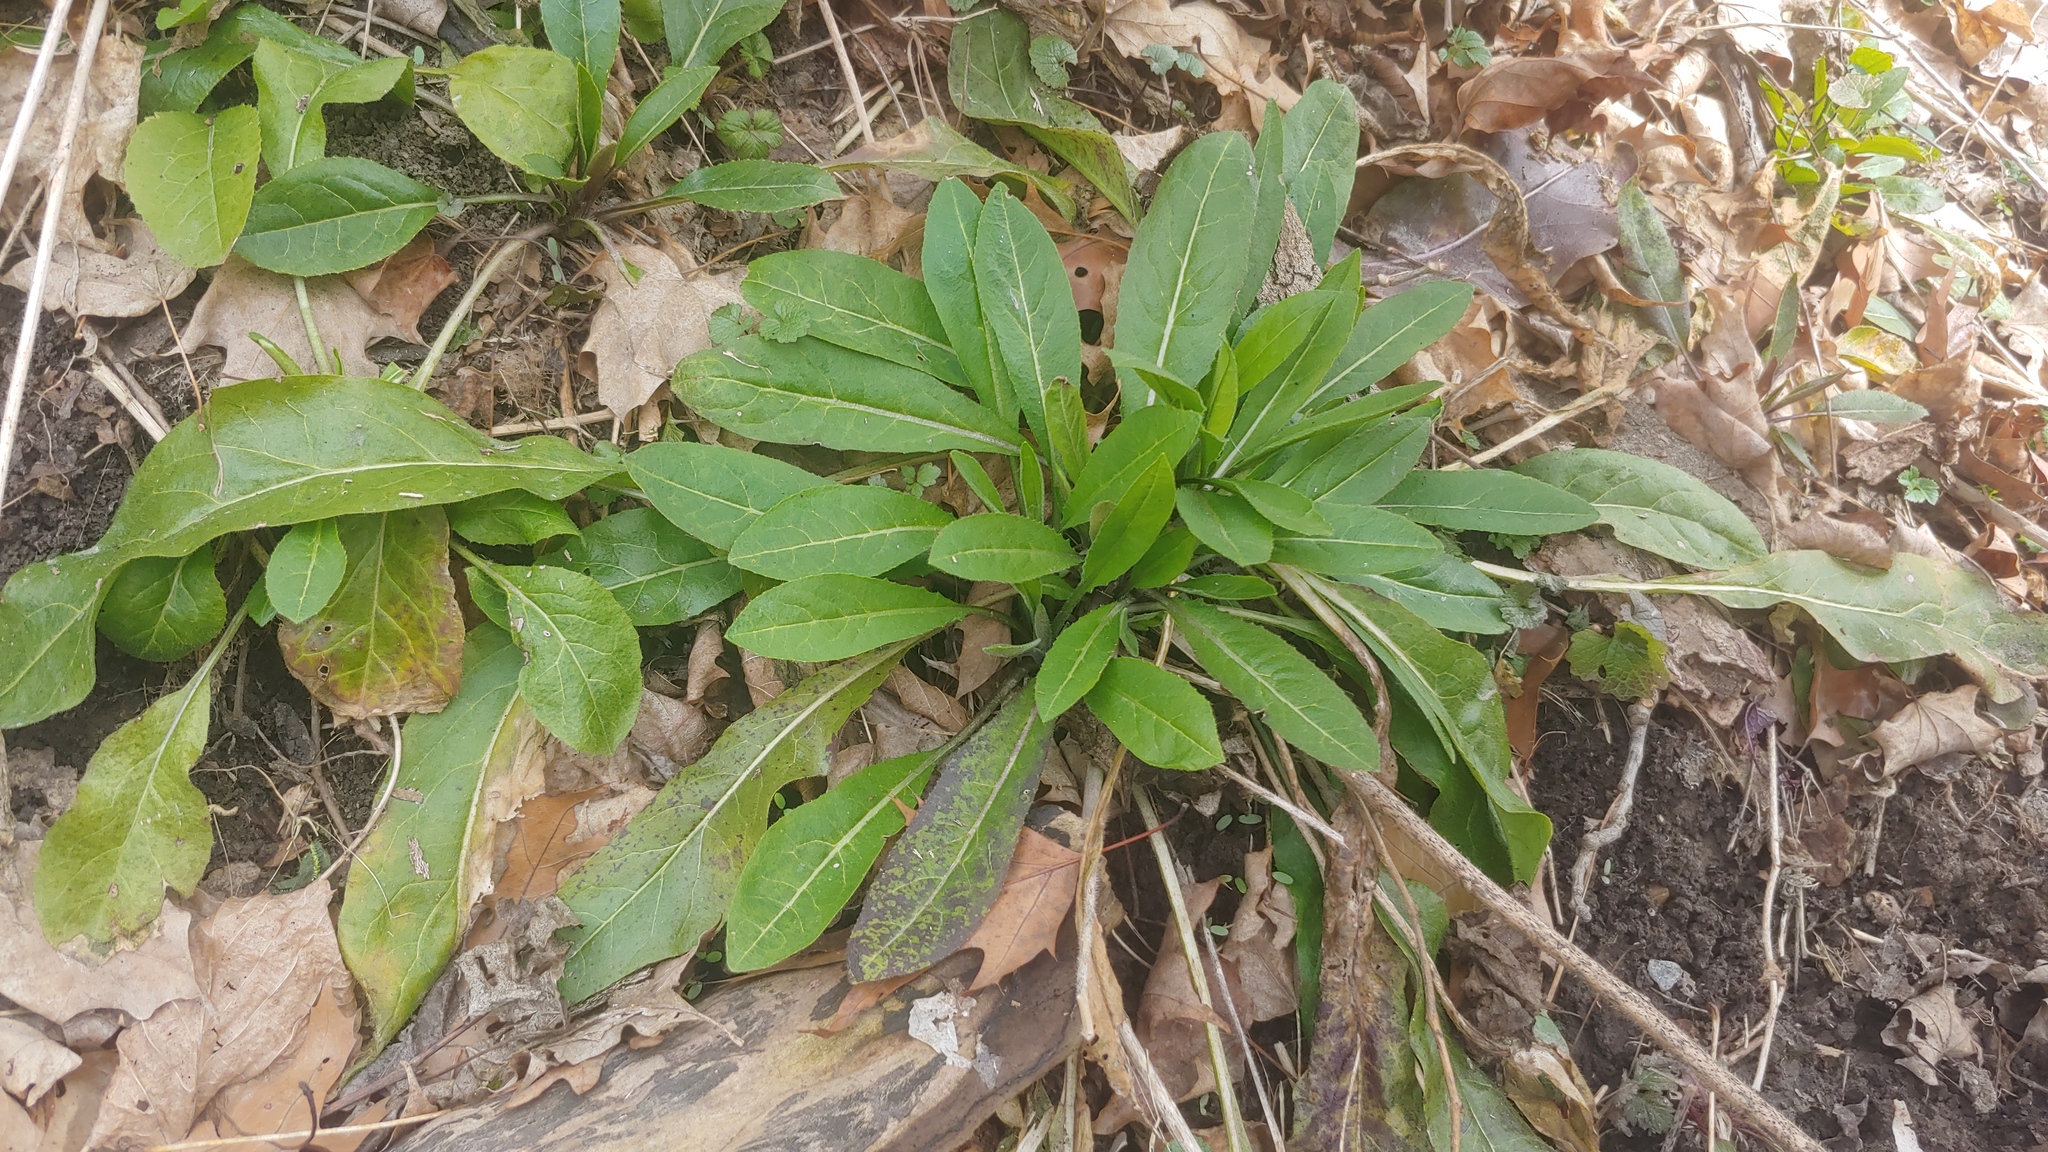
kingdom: Plantae
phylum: Tracheophyta
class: Magnoliopsida
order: Brassicales
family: Brassicaceae
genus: Hesperis
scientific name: Hesperis matronalis
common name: Dame's-violet
